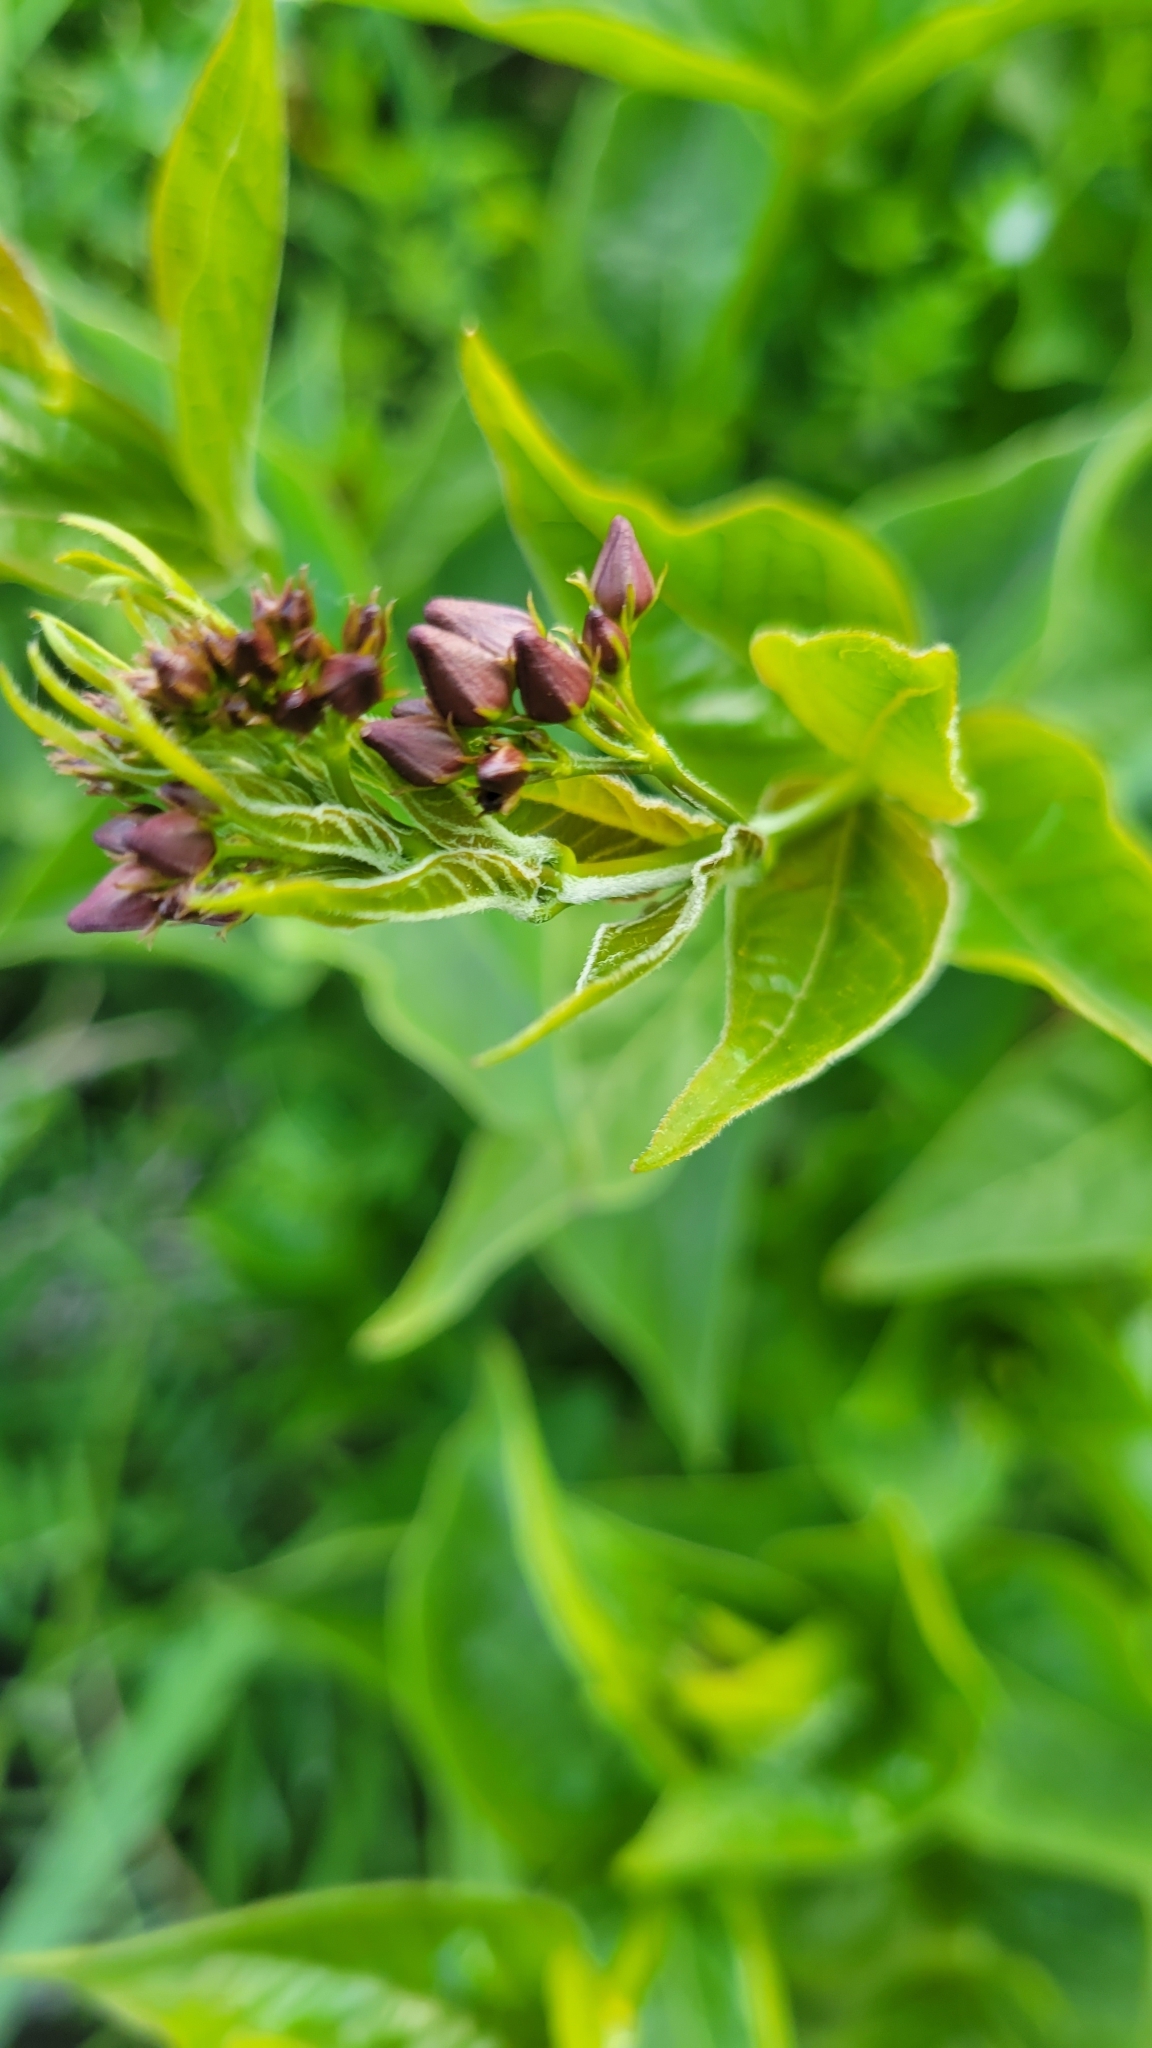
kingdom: Plantae
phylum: Tracheophyta
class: Magnoliopsida
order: Gentianales
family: Apocynaceae
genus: Vincetoxicum
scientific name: Vincetoxicum rossicum
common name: Dog-strangling vine
